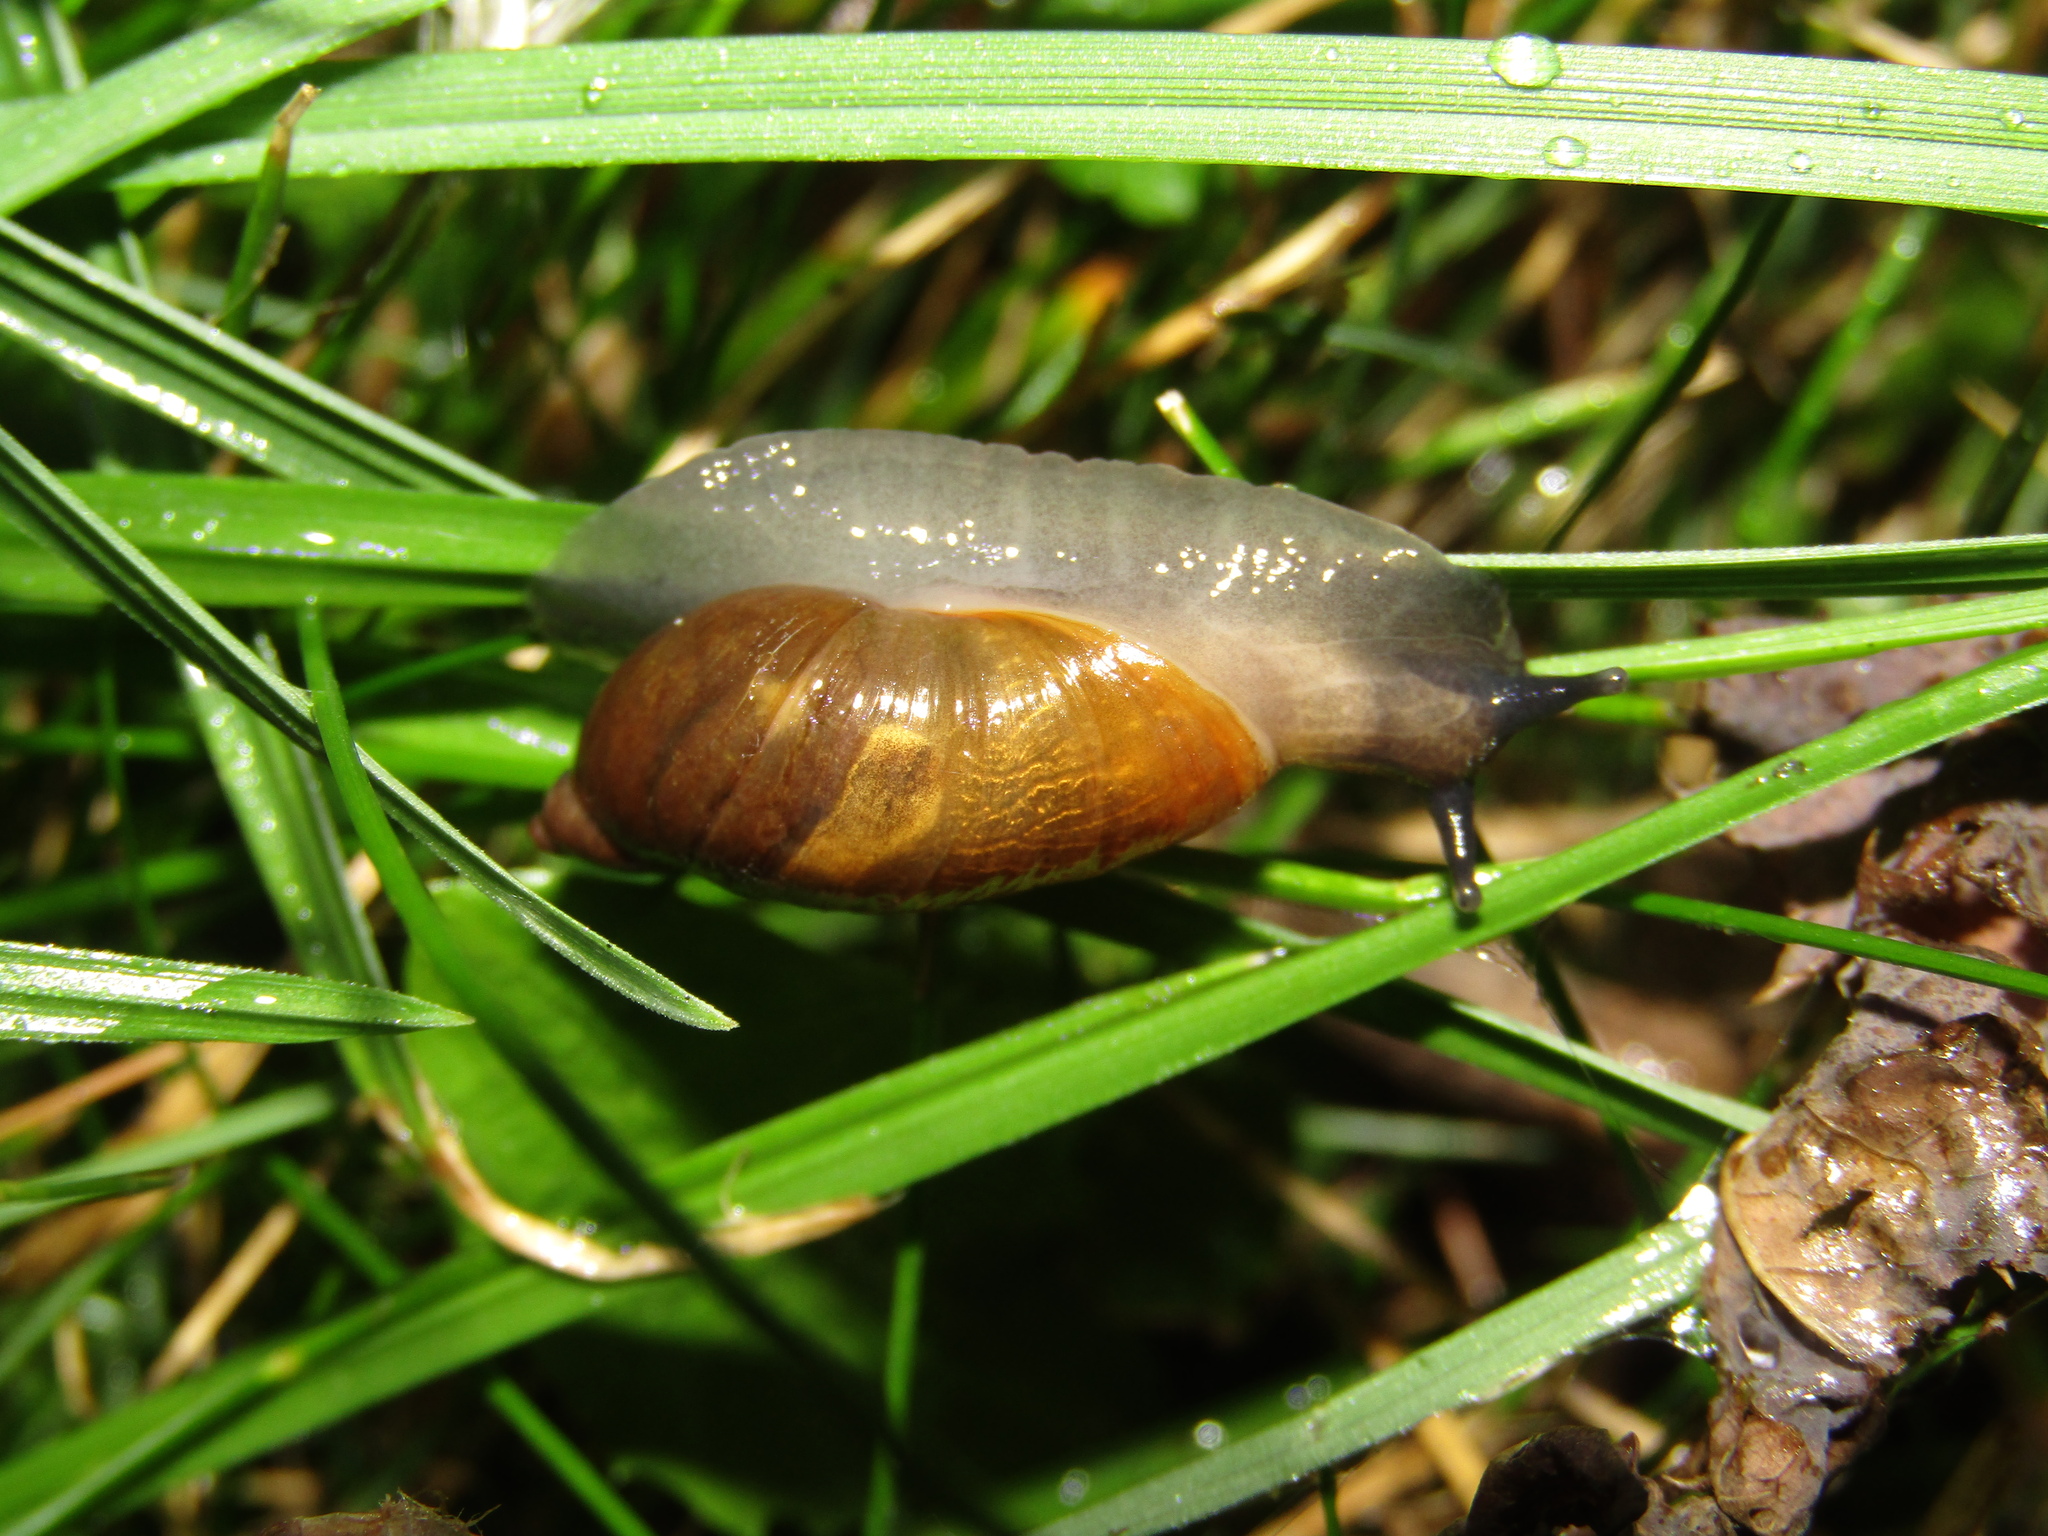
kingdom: Animalia
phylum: Mollusca
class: Gastropoda
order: Stylommatophora
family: Succineidae
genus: Succinea
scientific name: Succinea putris
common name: European ambersnail
